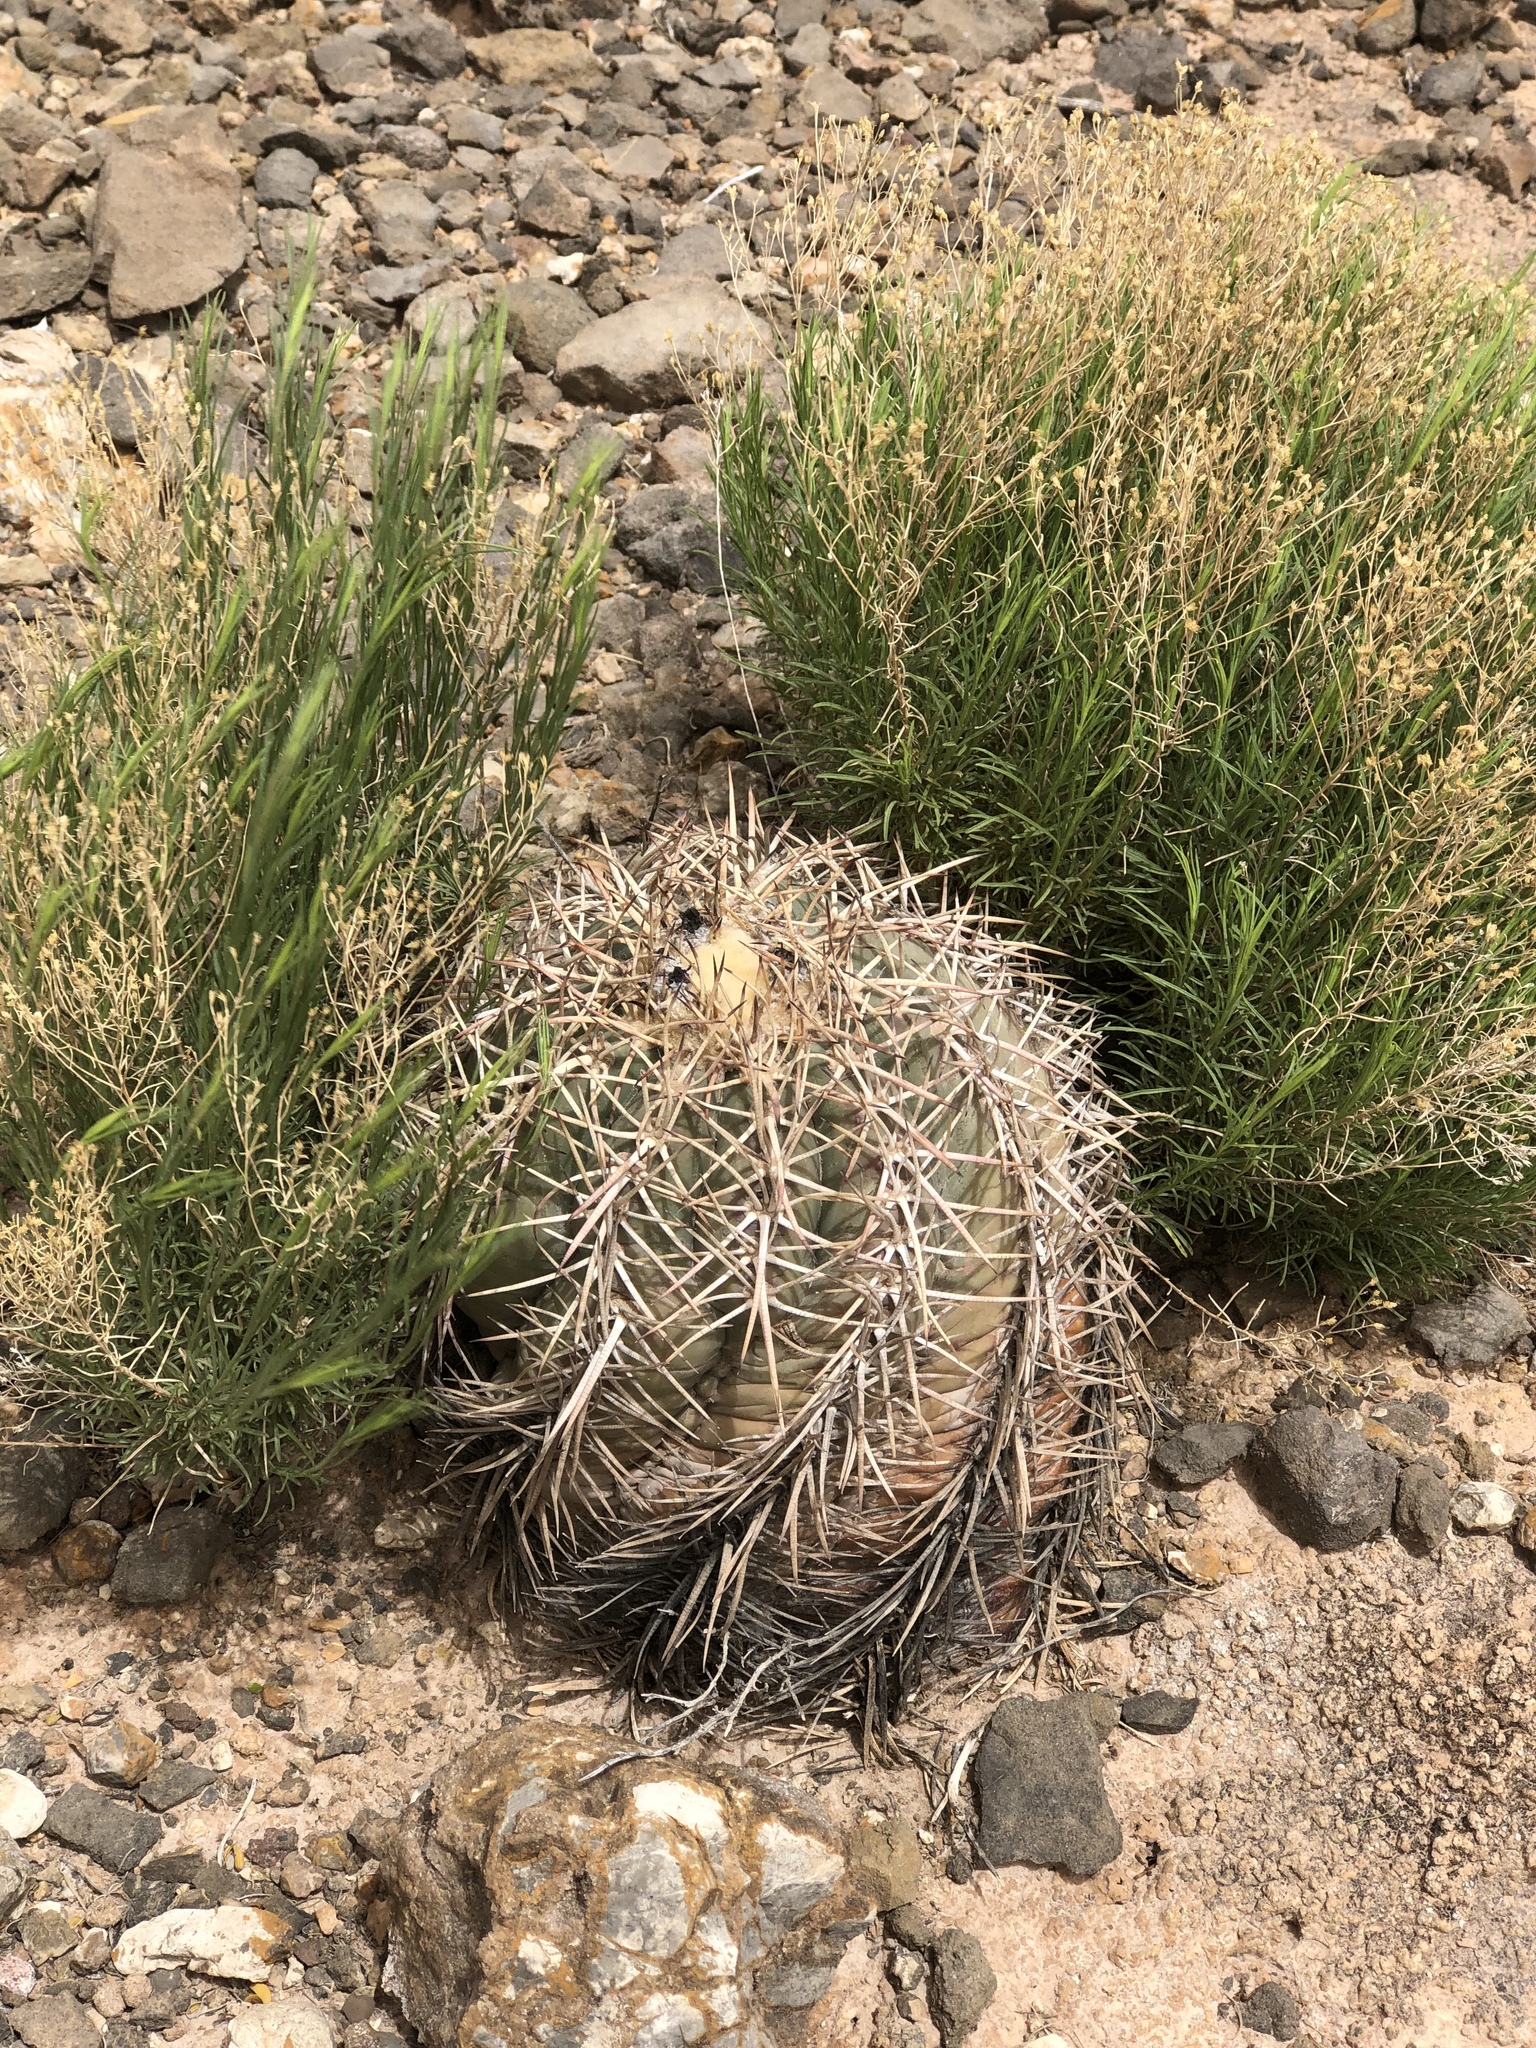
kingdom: Plantae
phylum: Tracheophyta
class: Magnoliopsida
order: Caryophyllales
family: Cactaceae
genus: Echinocactus
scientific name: Echinocactus horizonthalonius
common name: Devilshead
